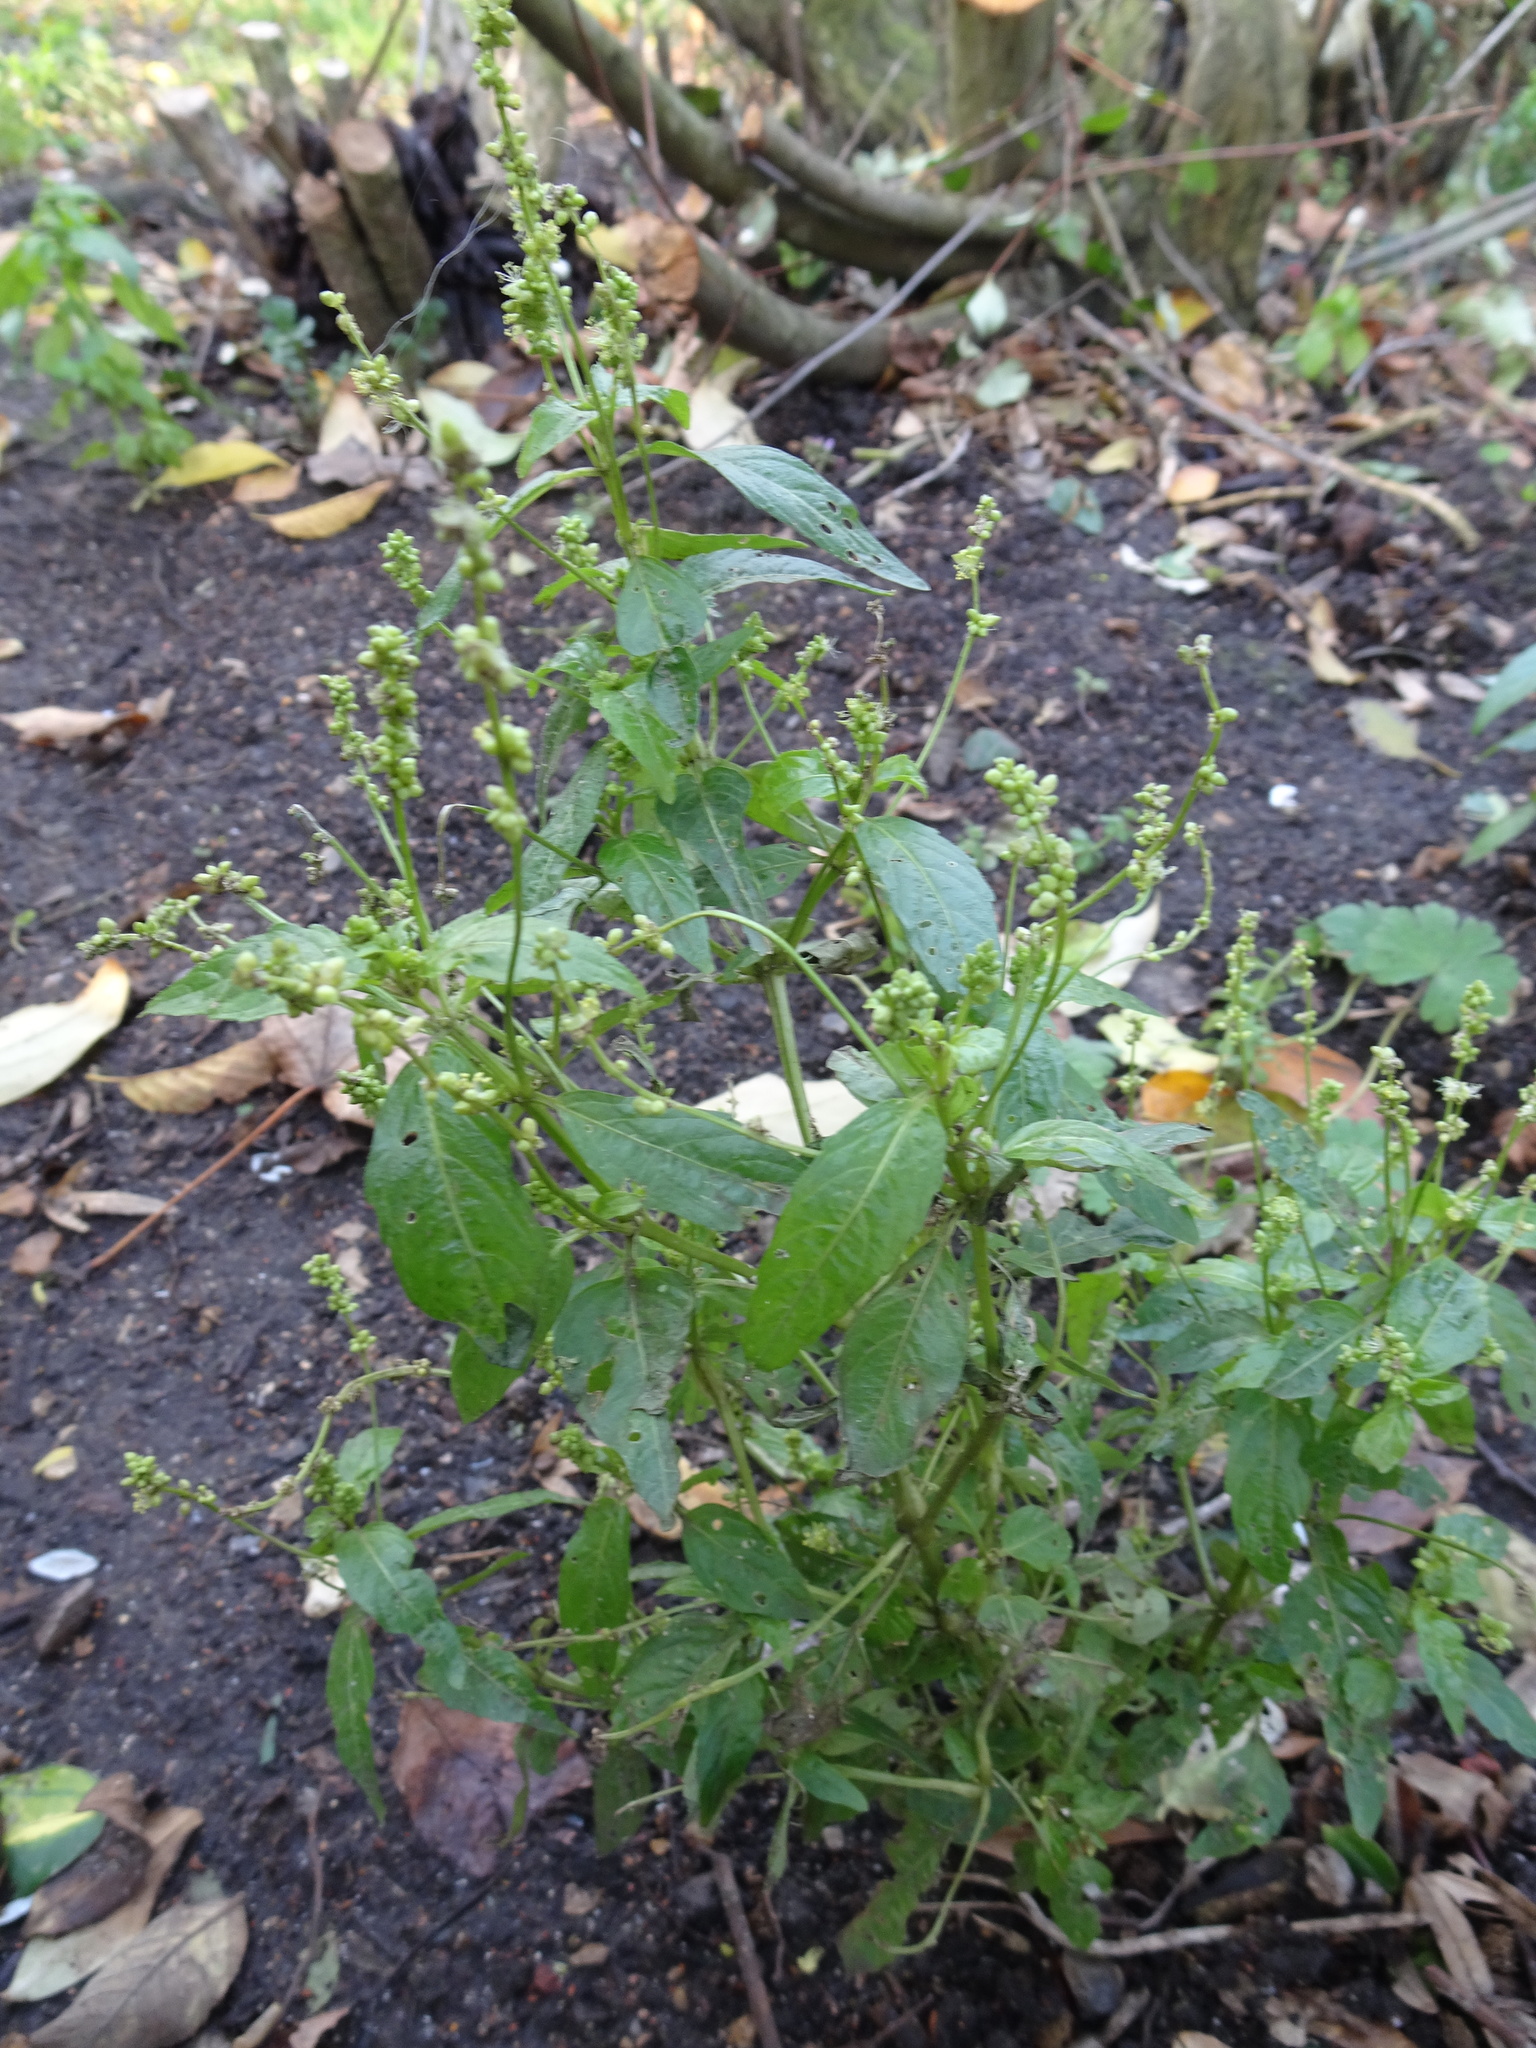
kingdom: Plantae
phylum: Tracheophyta
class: Magnoliopsida
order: Malpighiales
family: Euphorbiaceae
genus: Mercurialis
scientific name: Mercurialis annua
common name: Annual mercury
